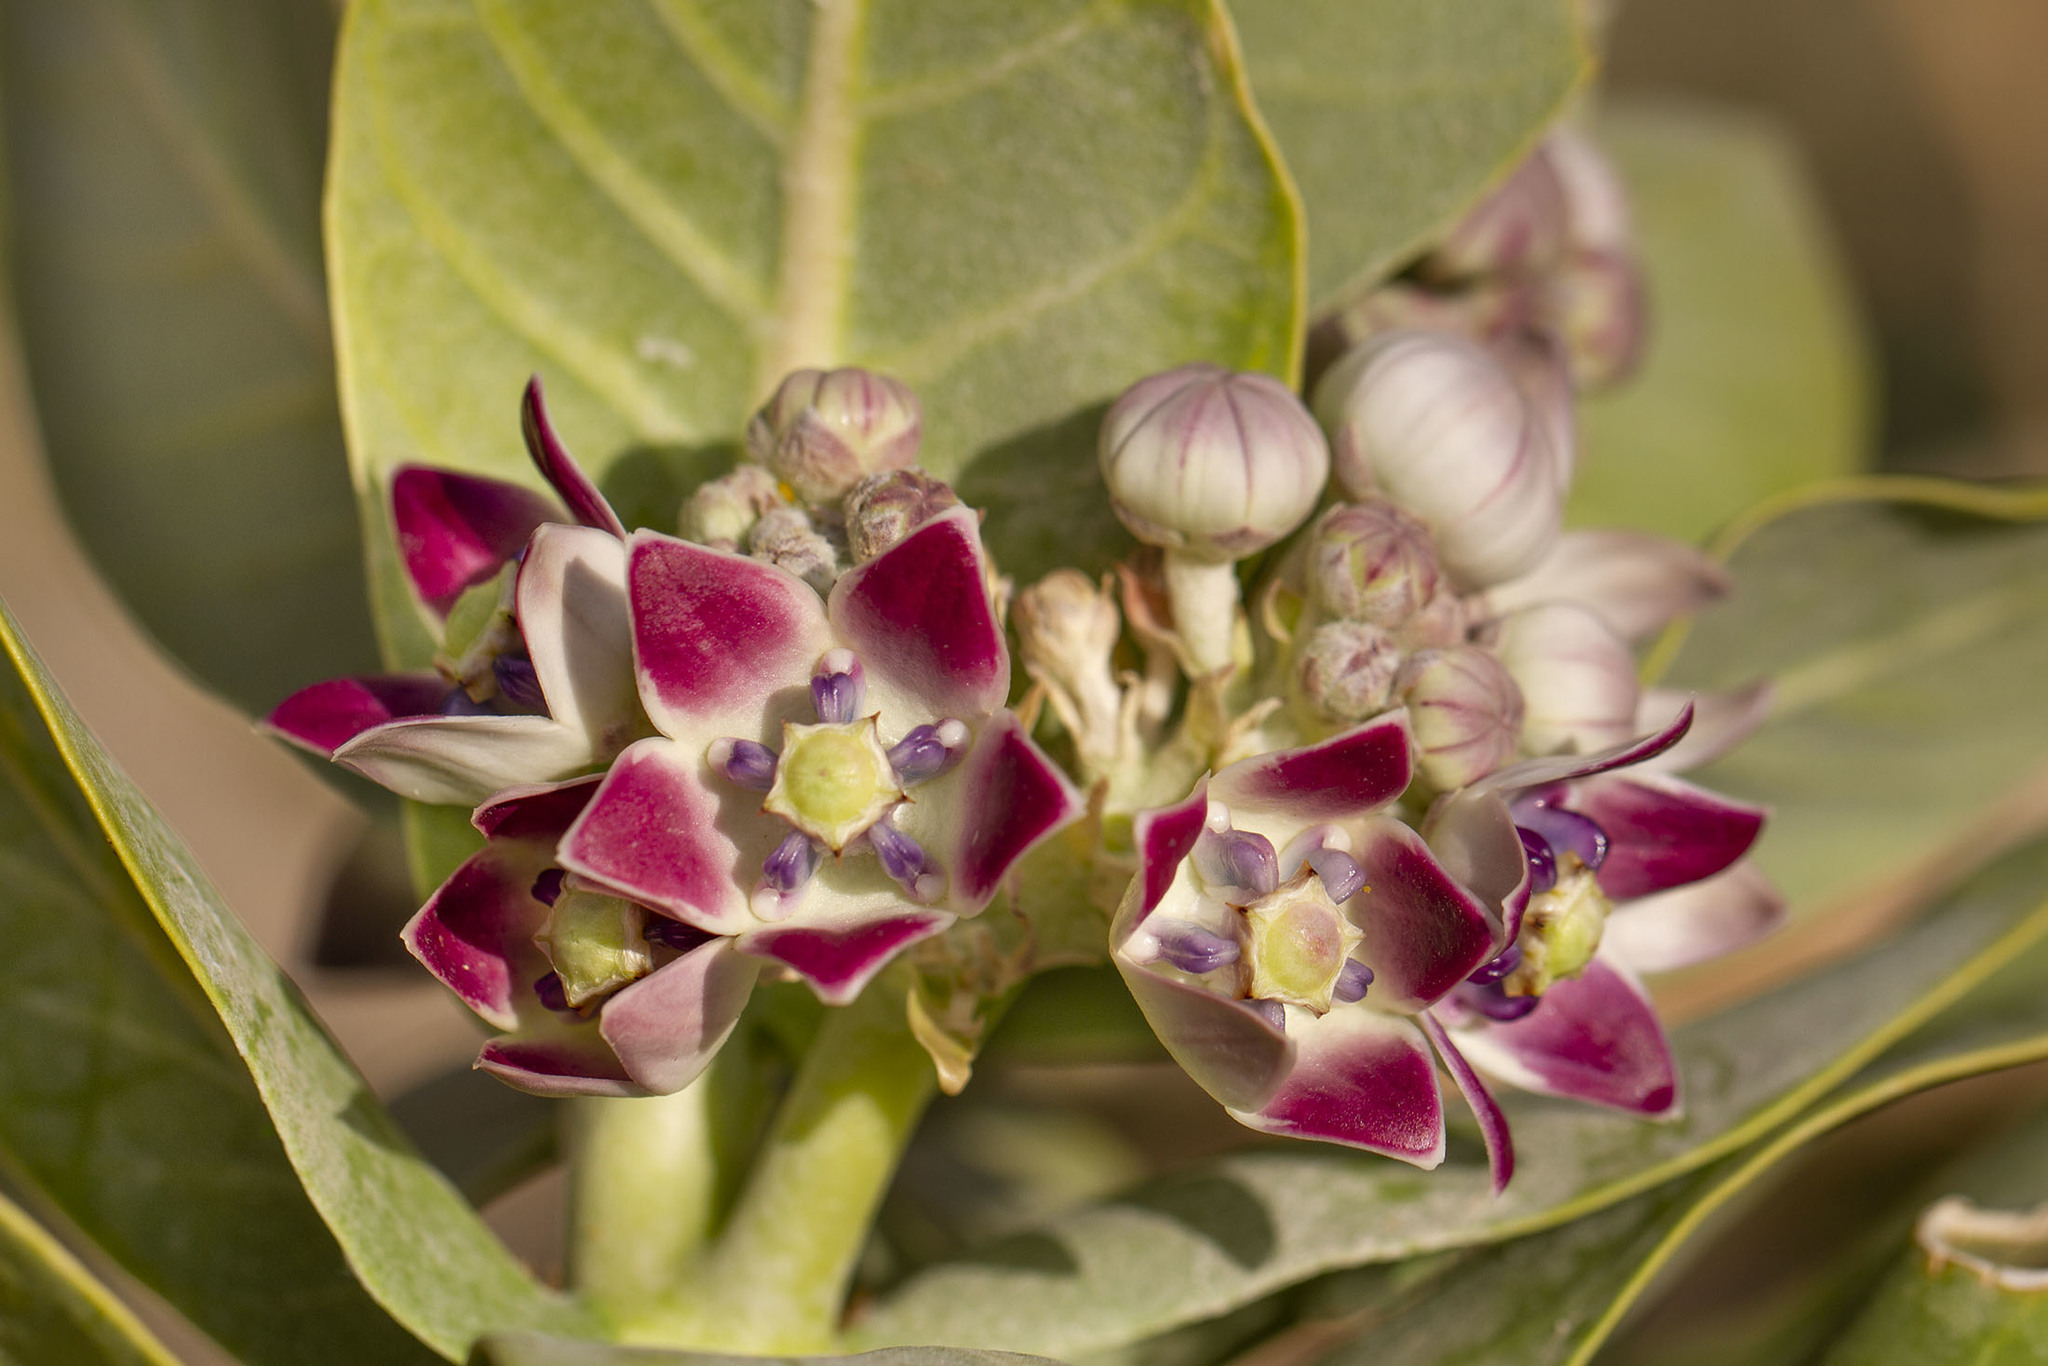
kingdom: Plantae
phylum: Tracheophyta
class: Magnoliopsida
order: Gentianales
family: Apocynaceae
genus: Calotropis
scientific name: Calotropis procera
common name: Roostertree
